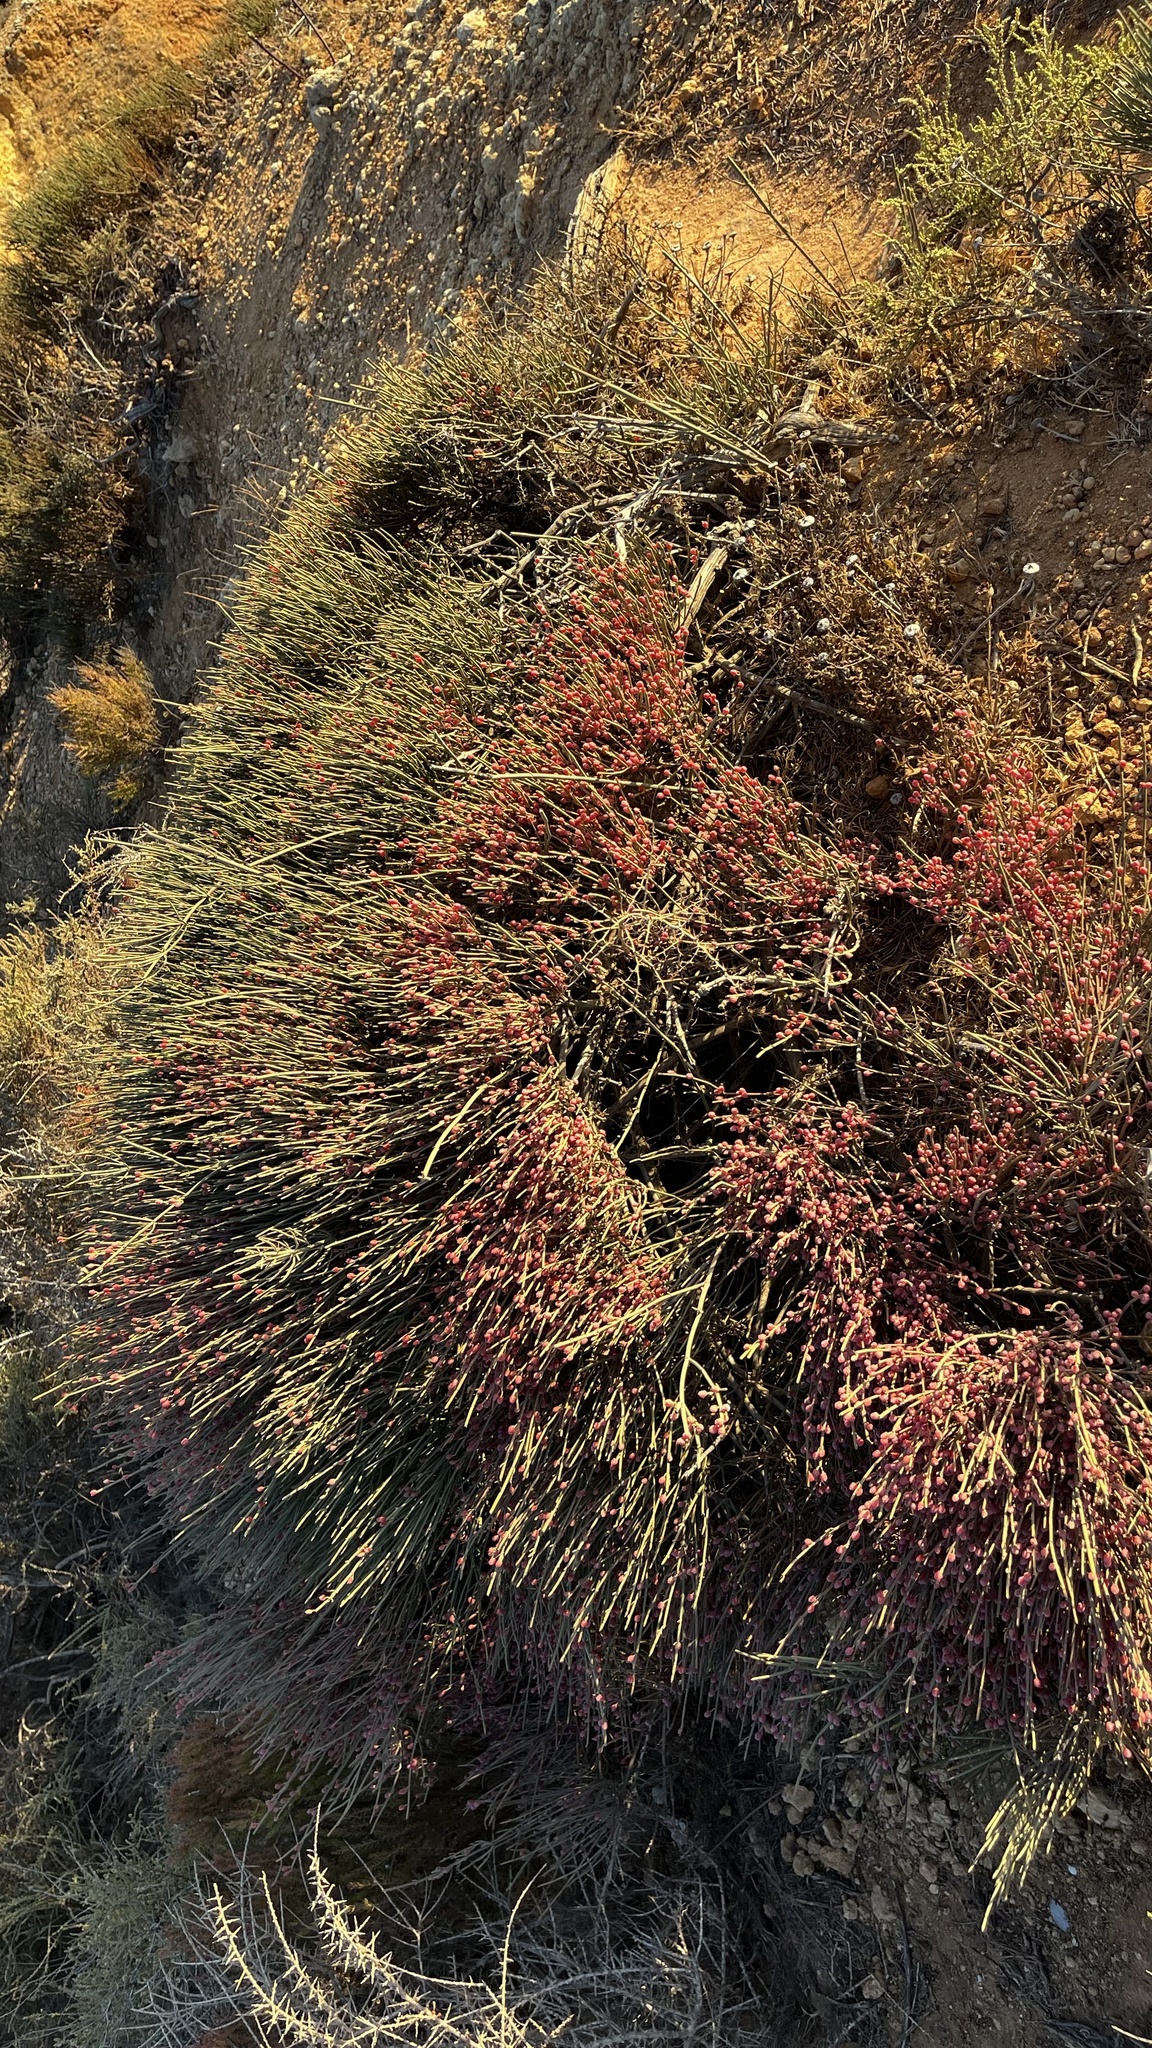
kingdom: Plantae
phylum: Tracheophyta
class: Gnetopsida
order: Ephedrales
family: Ephedraceae
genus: Ephedra
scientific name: Ephedra fragilis
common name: Joint pine
